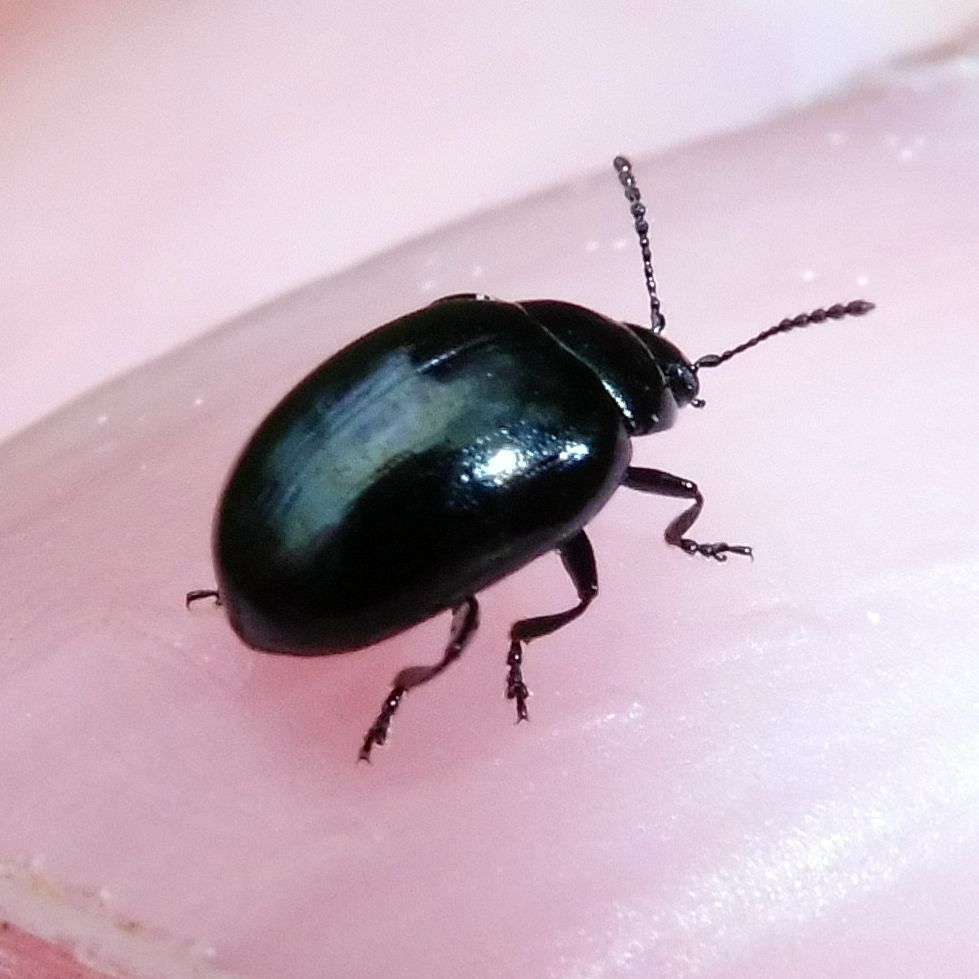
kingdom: Animalia
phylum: Arthropoda
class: Insecta
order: Coleoptera
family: Chrysomelidae
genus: Phaedon
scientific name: Phaedon armoraciae
